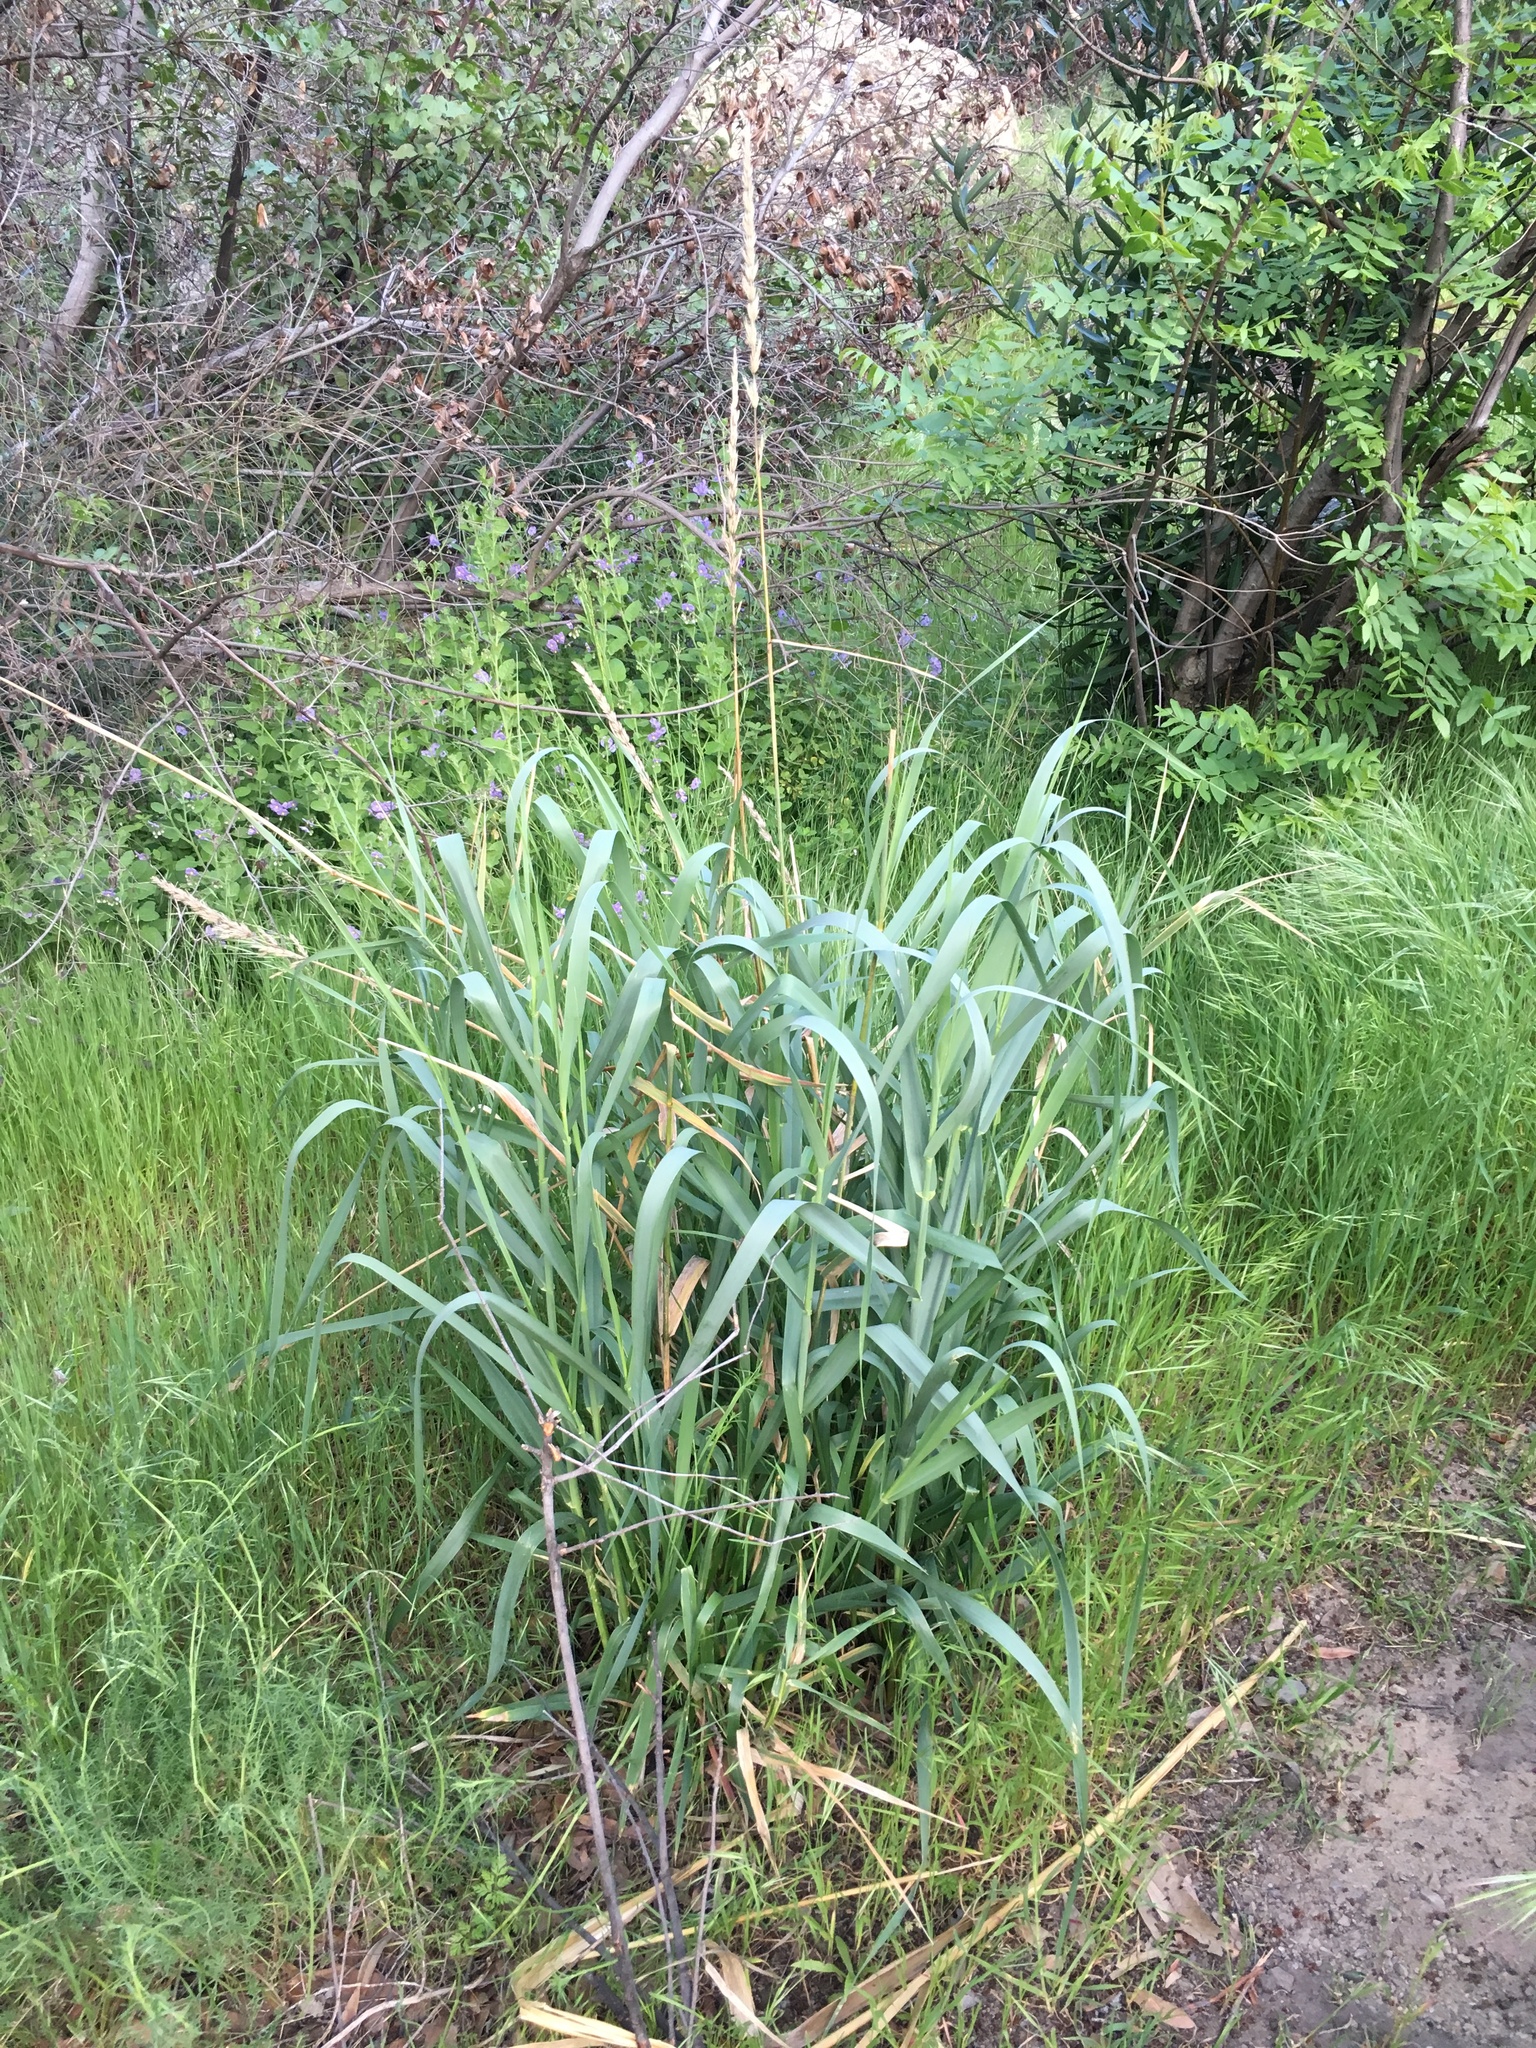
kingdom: Plantae
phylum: Tracheophyta
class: Liliopsida
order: Poales
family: Poaceae
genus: Leymus
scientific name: Leymus condensatus
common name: Giant wild rye
